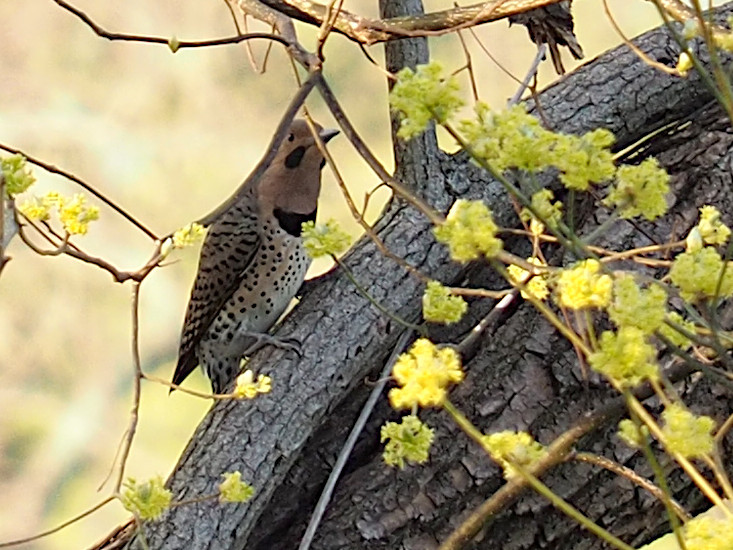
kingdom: Animalia
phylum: Chordata
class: Aves
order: Piciformes
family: Picidae
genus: Colaptes
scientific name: Colaptes auratus
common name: Northern flicker
